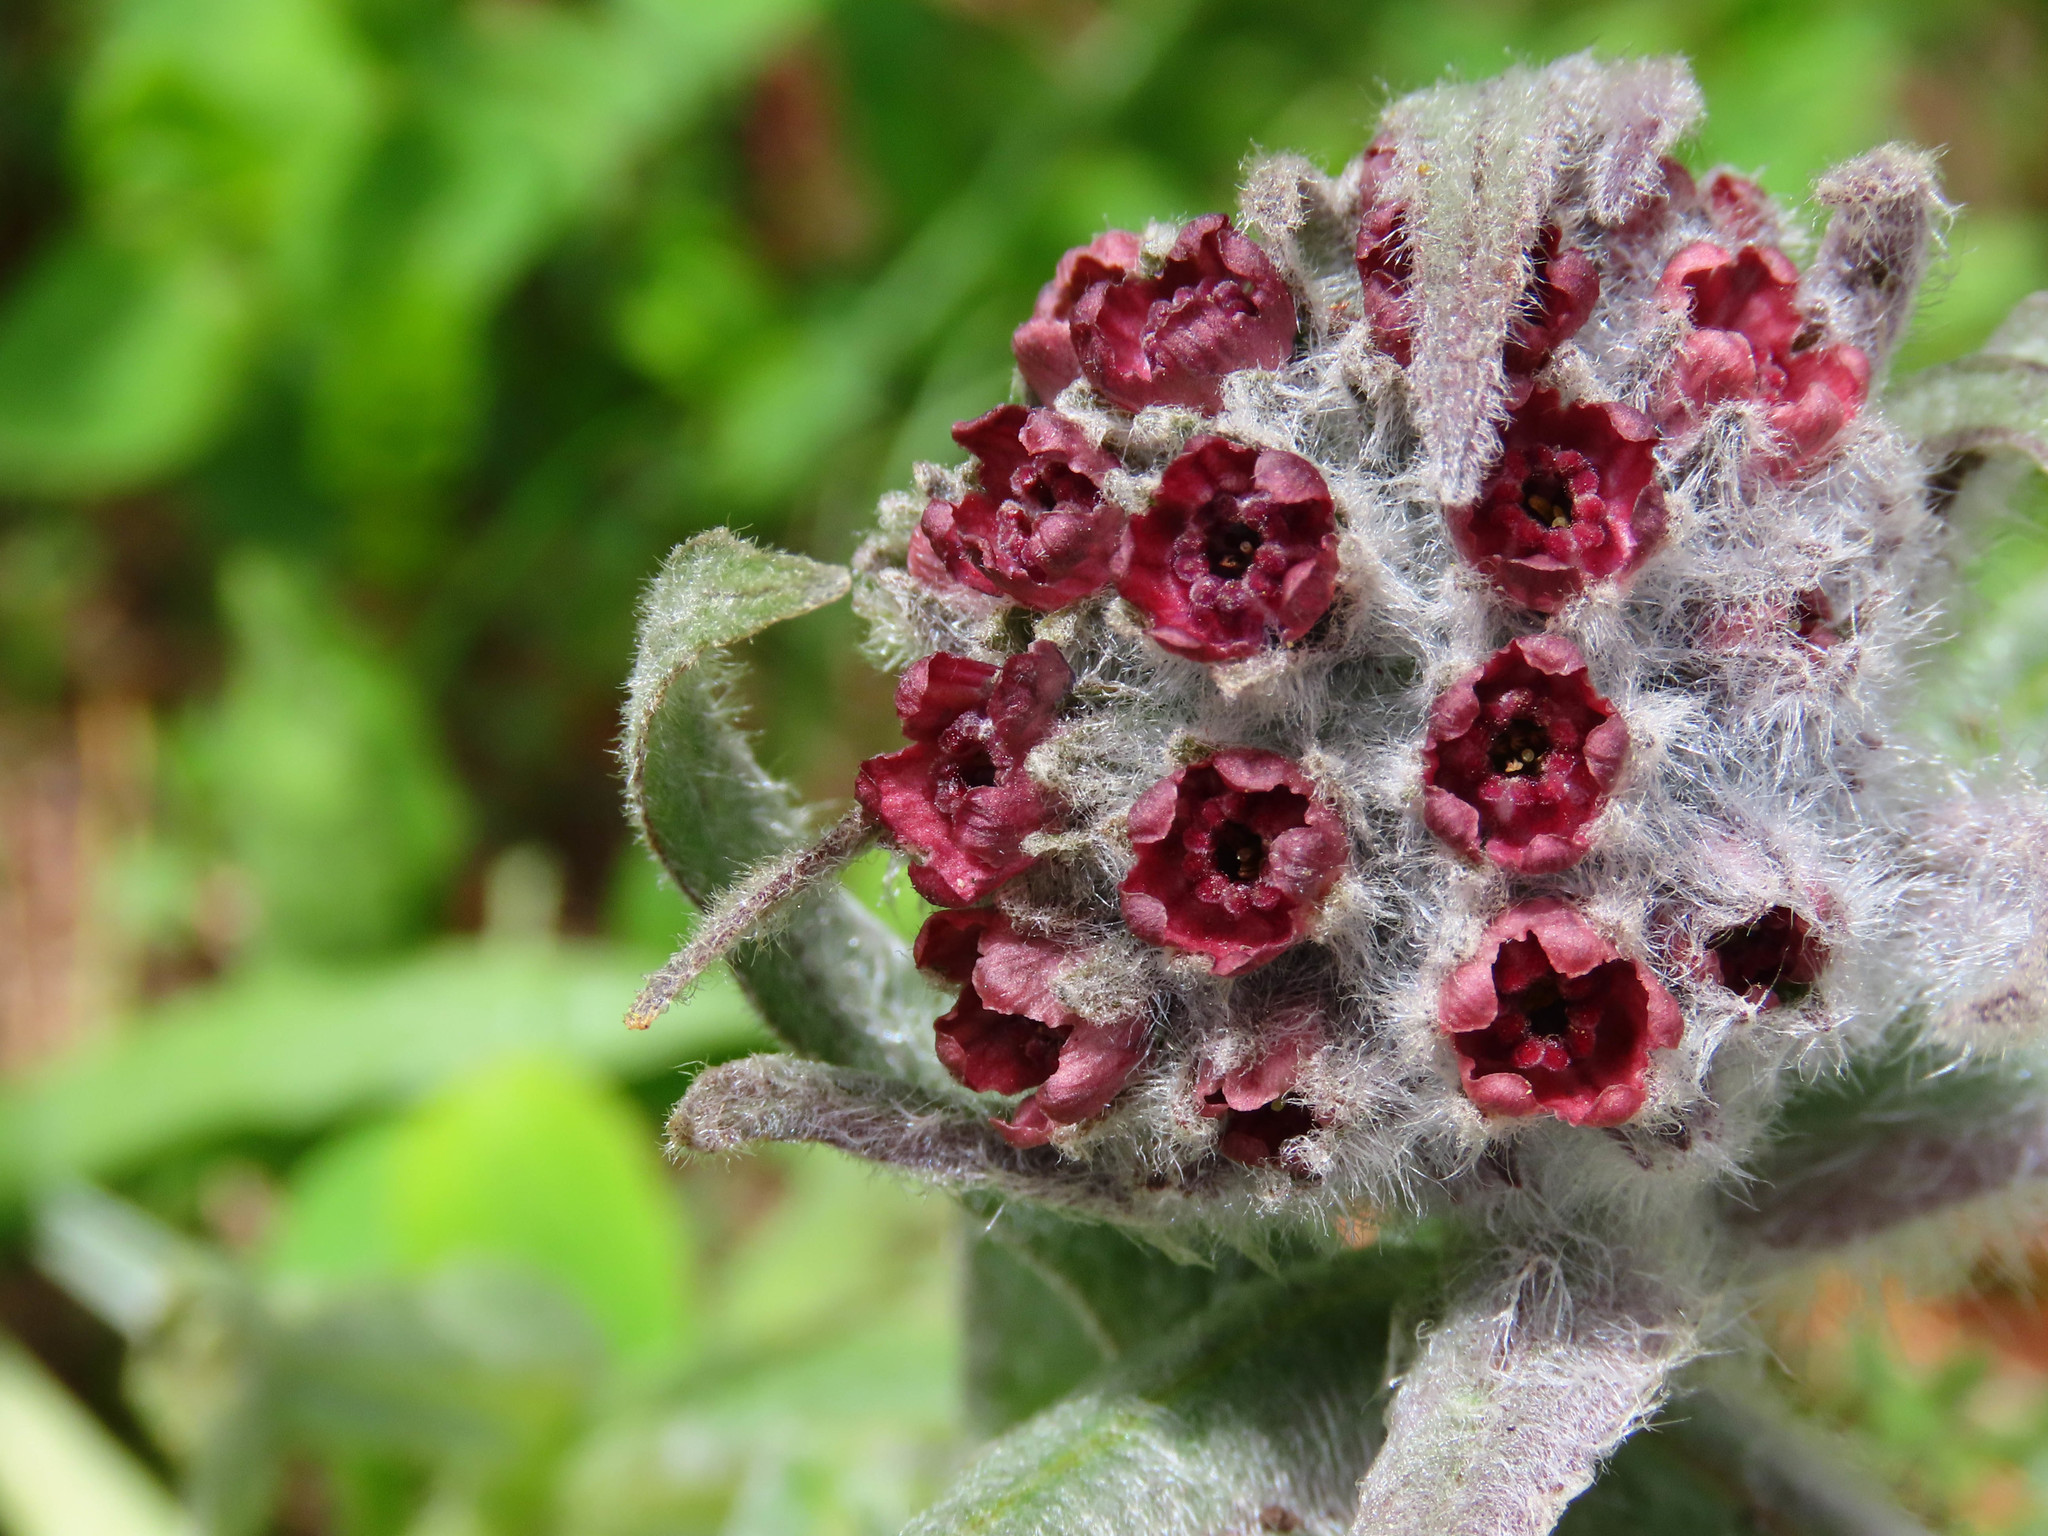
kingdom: Plantae
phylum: Tracheophyta
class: Magnoliopsida
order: Boraginales
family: Boraginaceae
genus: Rindera
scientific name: Rindera magellensis
